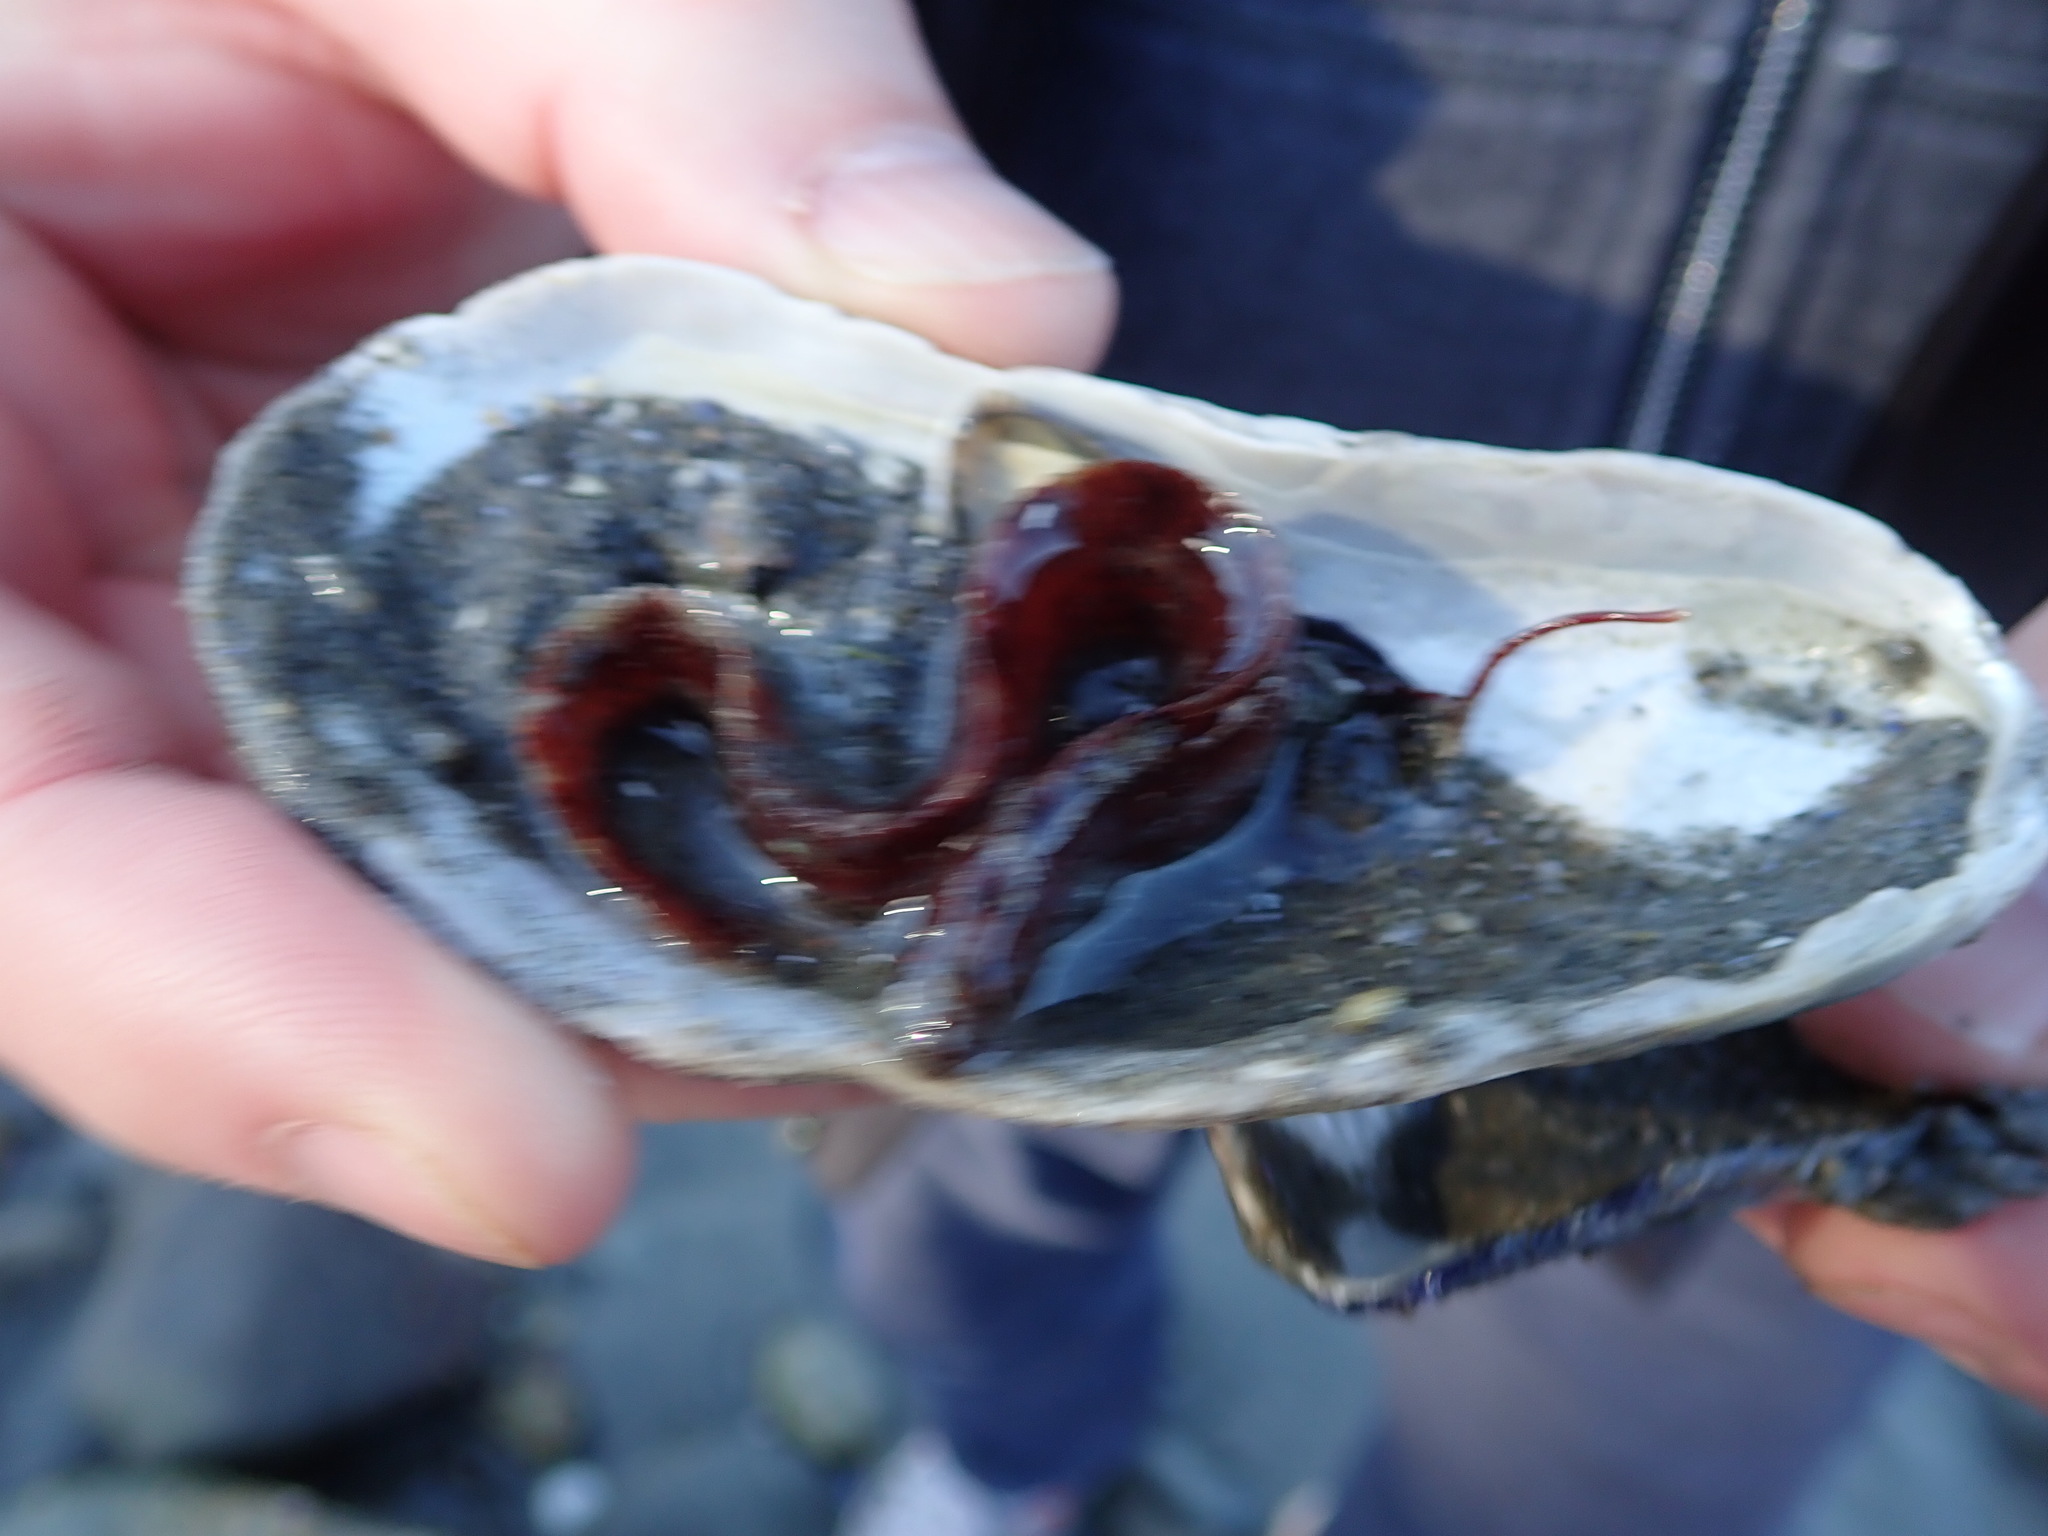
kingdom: Animalia
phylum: Chordata
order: Perciformes
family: Pholidae
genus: Pholis
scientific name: Pholis gunnellus
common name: Butterfish
